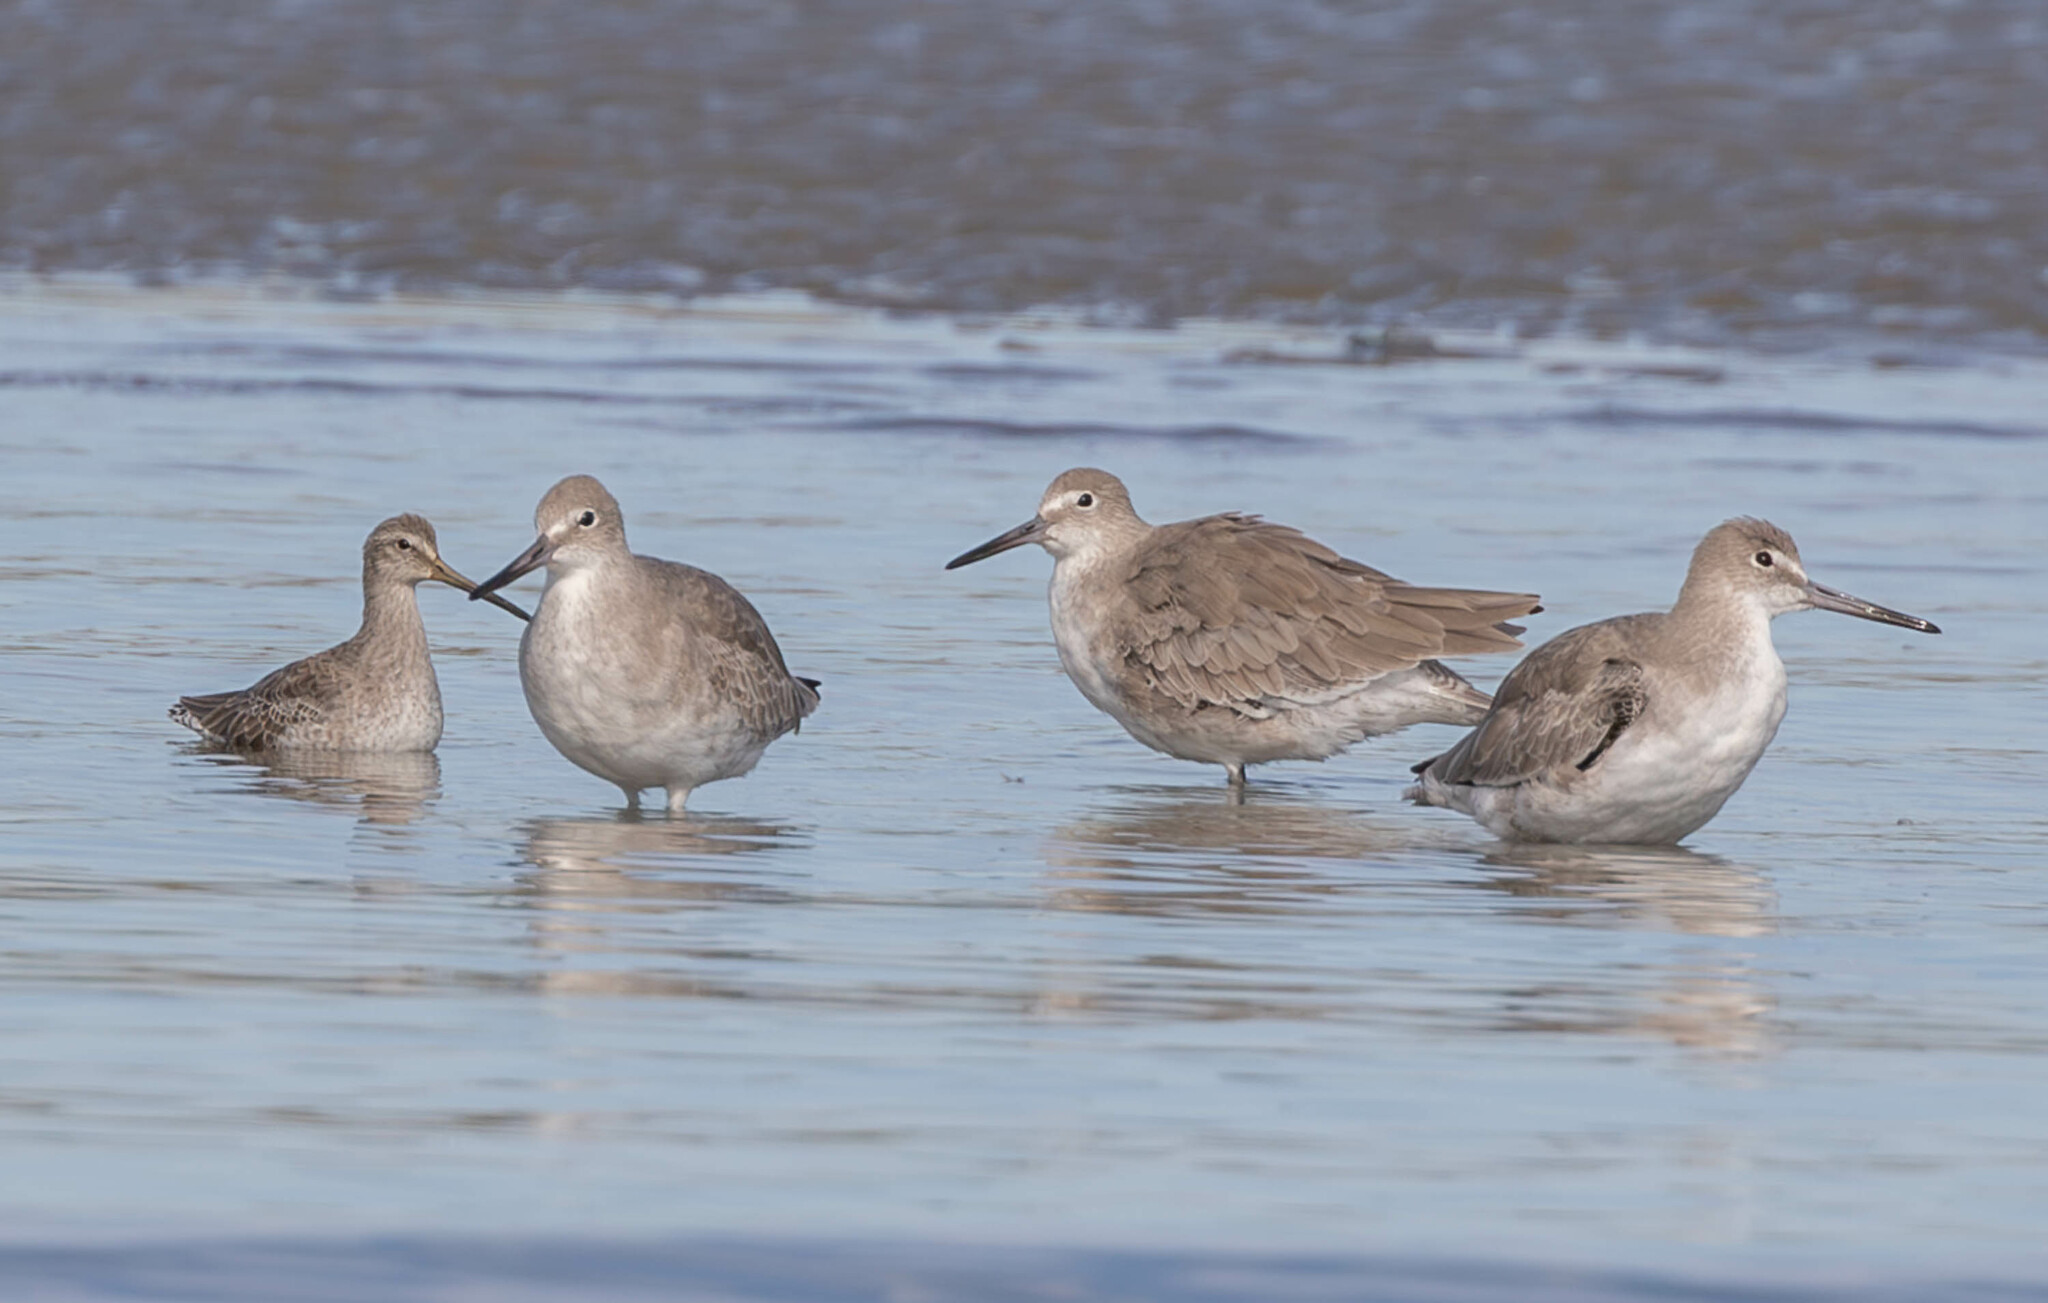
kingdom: Animalia
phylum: Chordata
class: Aves
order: Charadriiformes
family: Scolopacidae
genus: Tringa
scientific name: Tringa semipalmata
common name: Willet
